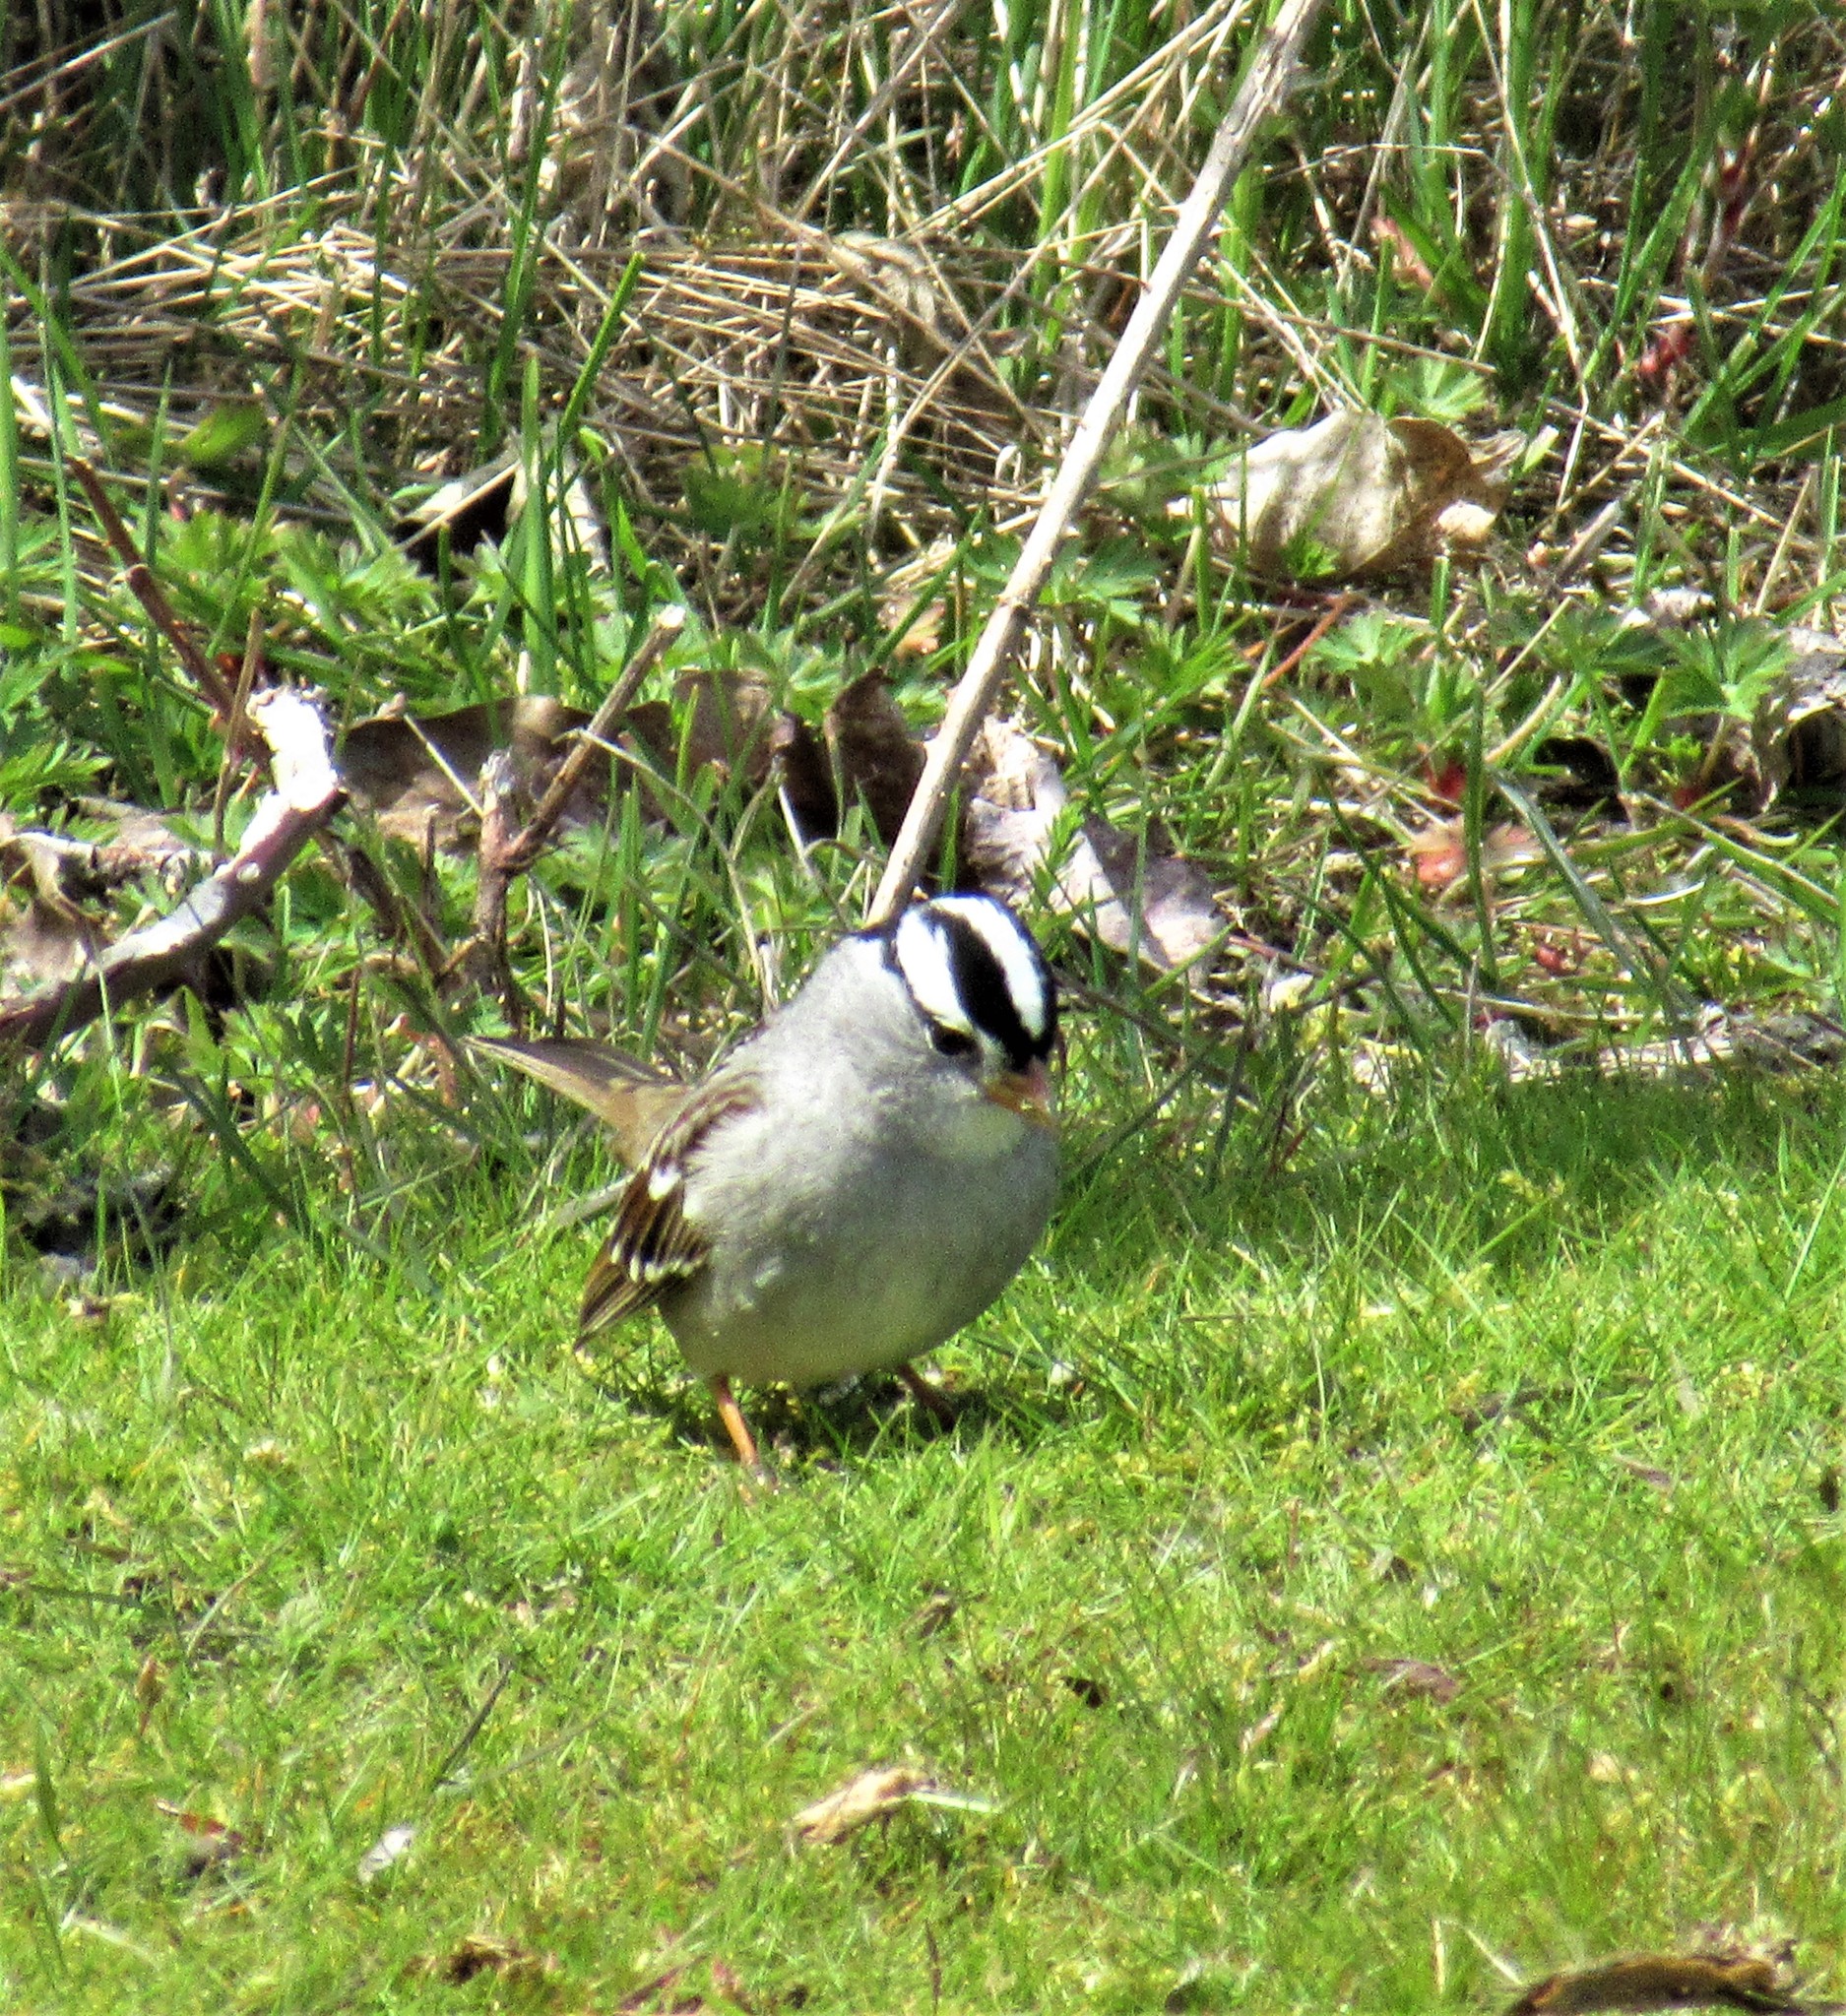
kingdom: Animalia
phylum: Chordata
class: Aves
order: Passeriformes
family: Passerellidae
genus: Zonotrichia
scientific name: Zonotrichia leucophrys
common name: White-crowned sparrow
